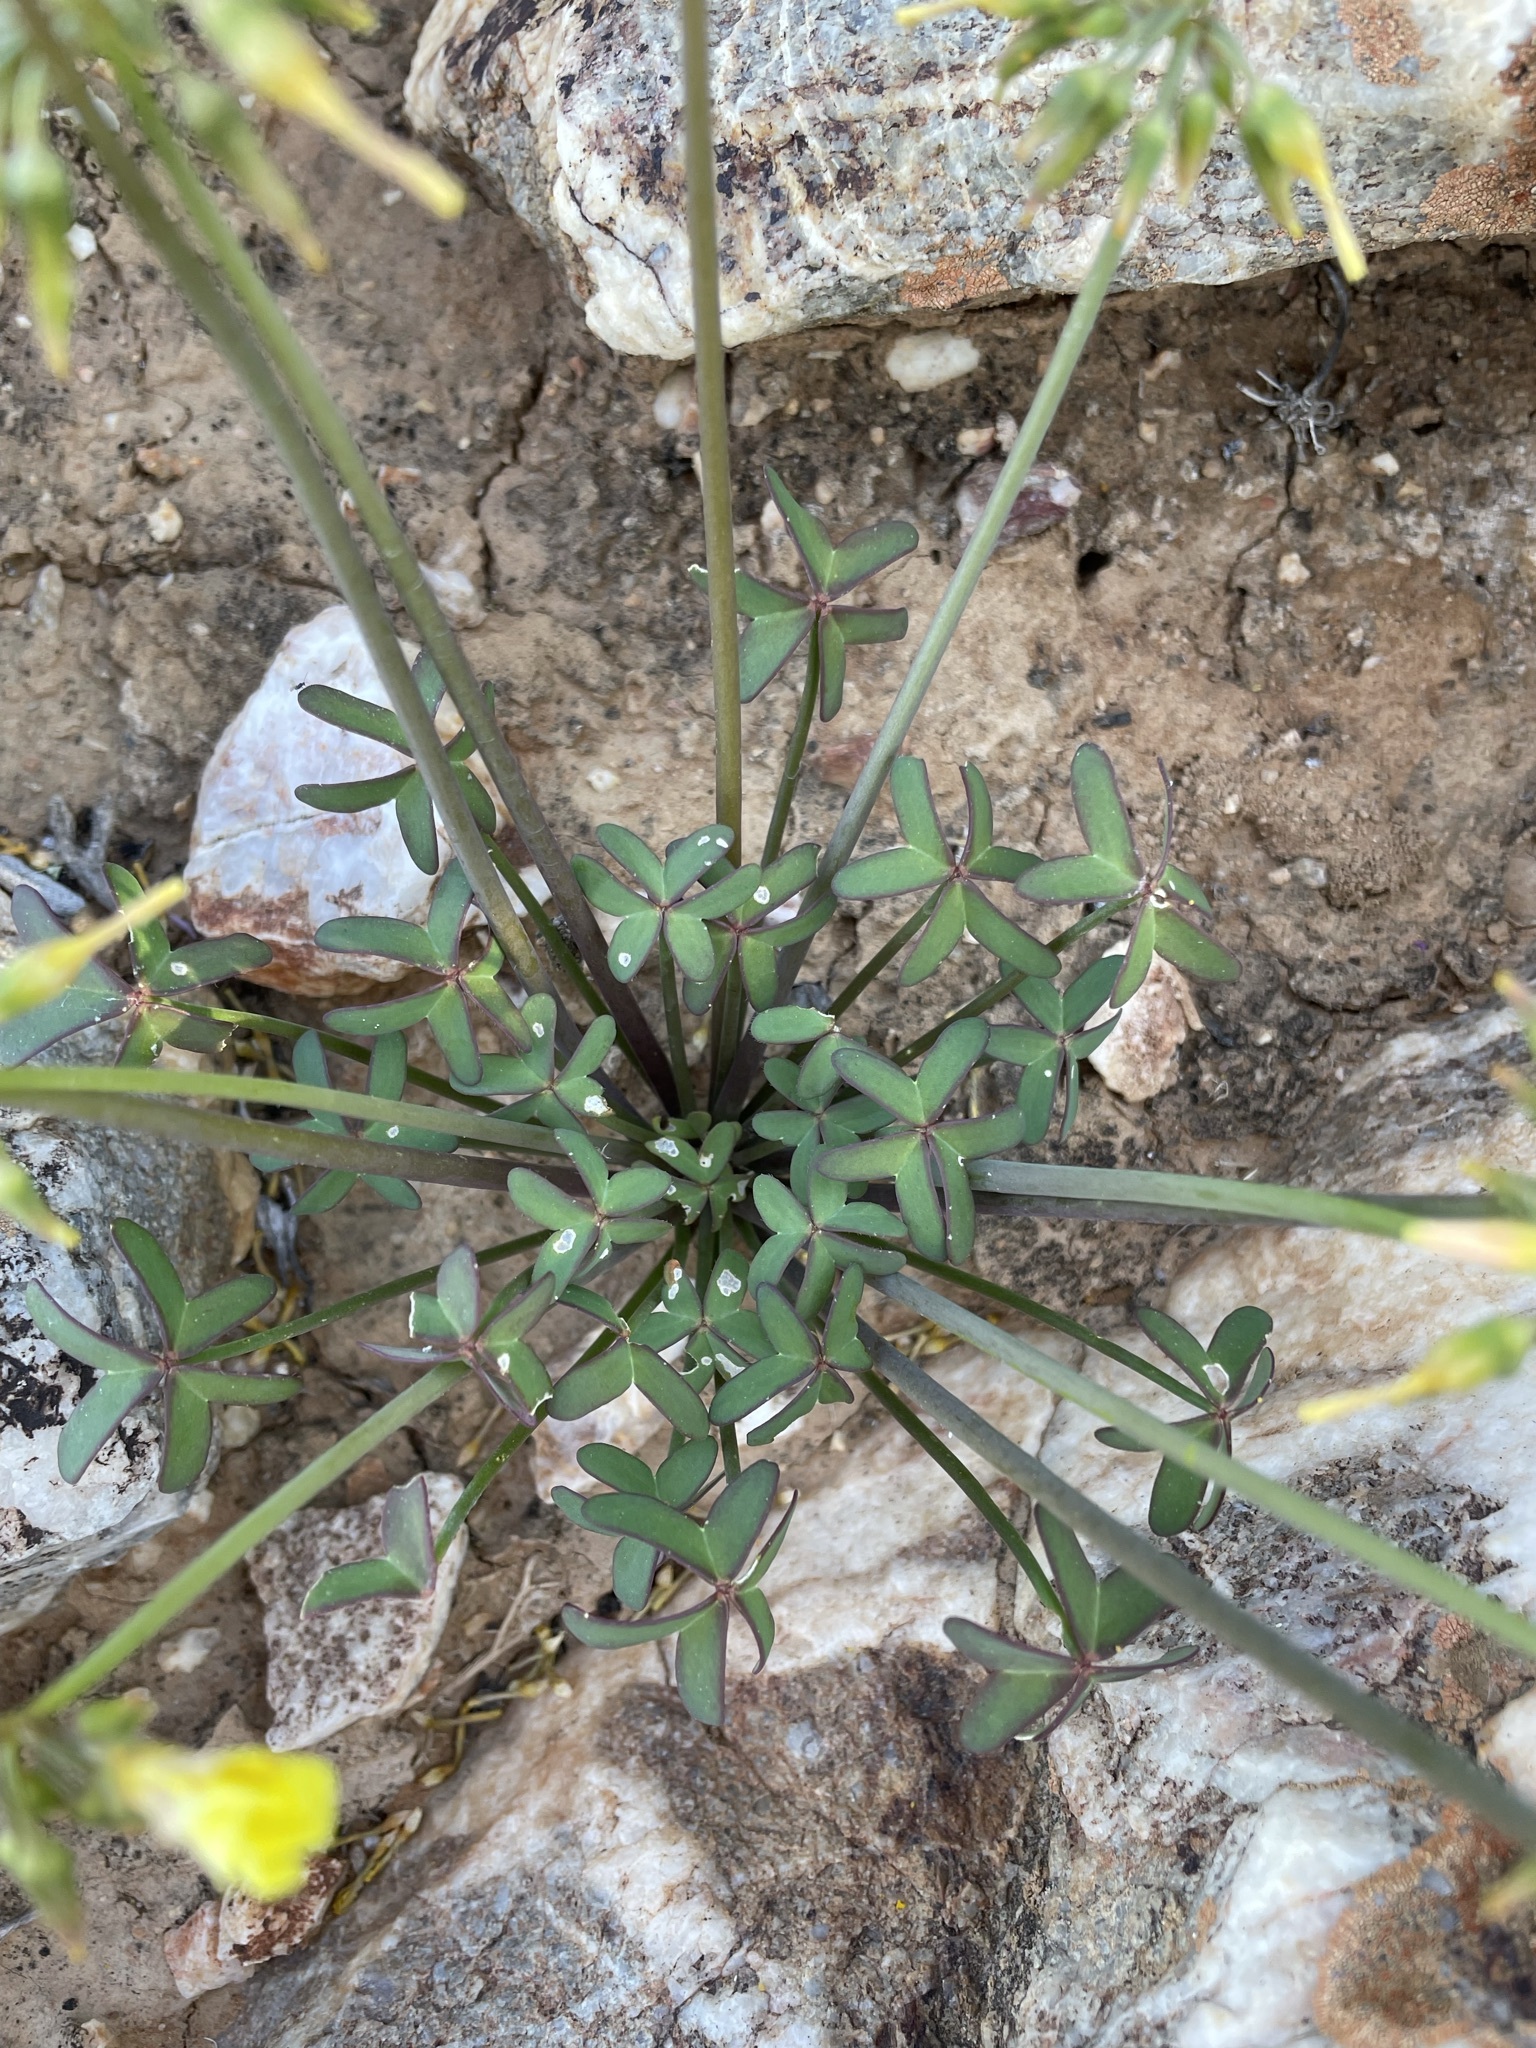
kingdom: Plantae
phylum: Tracheophyta
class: Magnoliopsida
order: Oxalidales
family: Oxalidaceae
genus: Oxalis
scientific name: Oxalis pes-caprae
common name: Bermuda-buttercup
